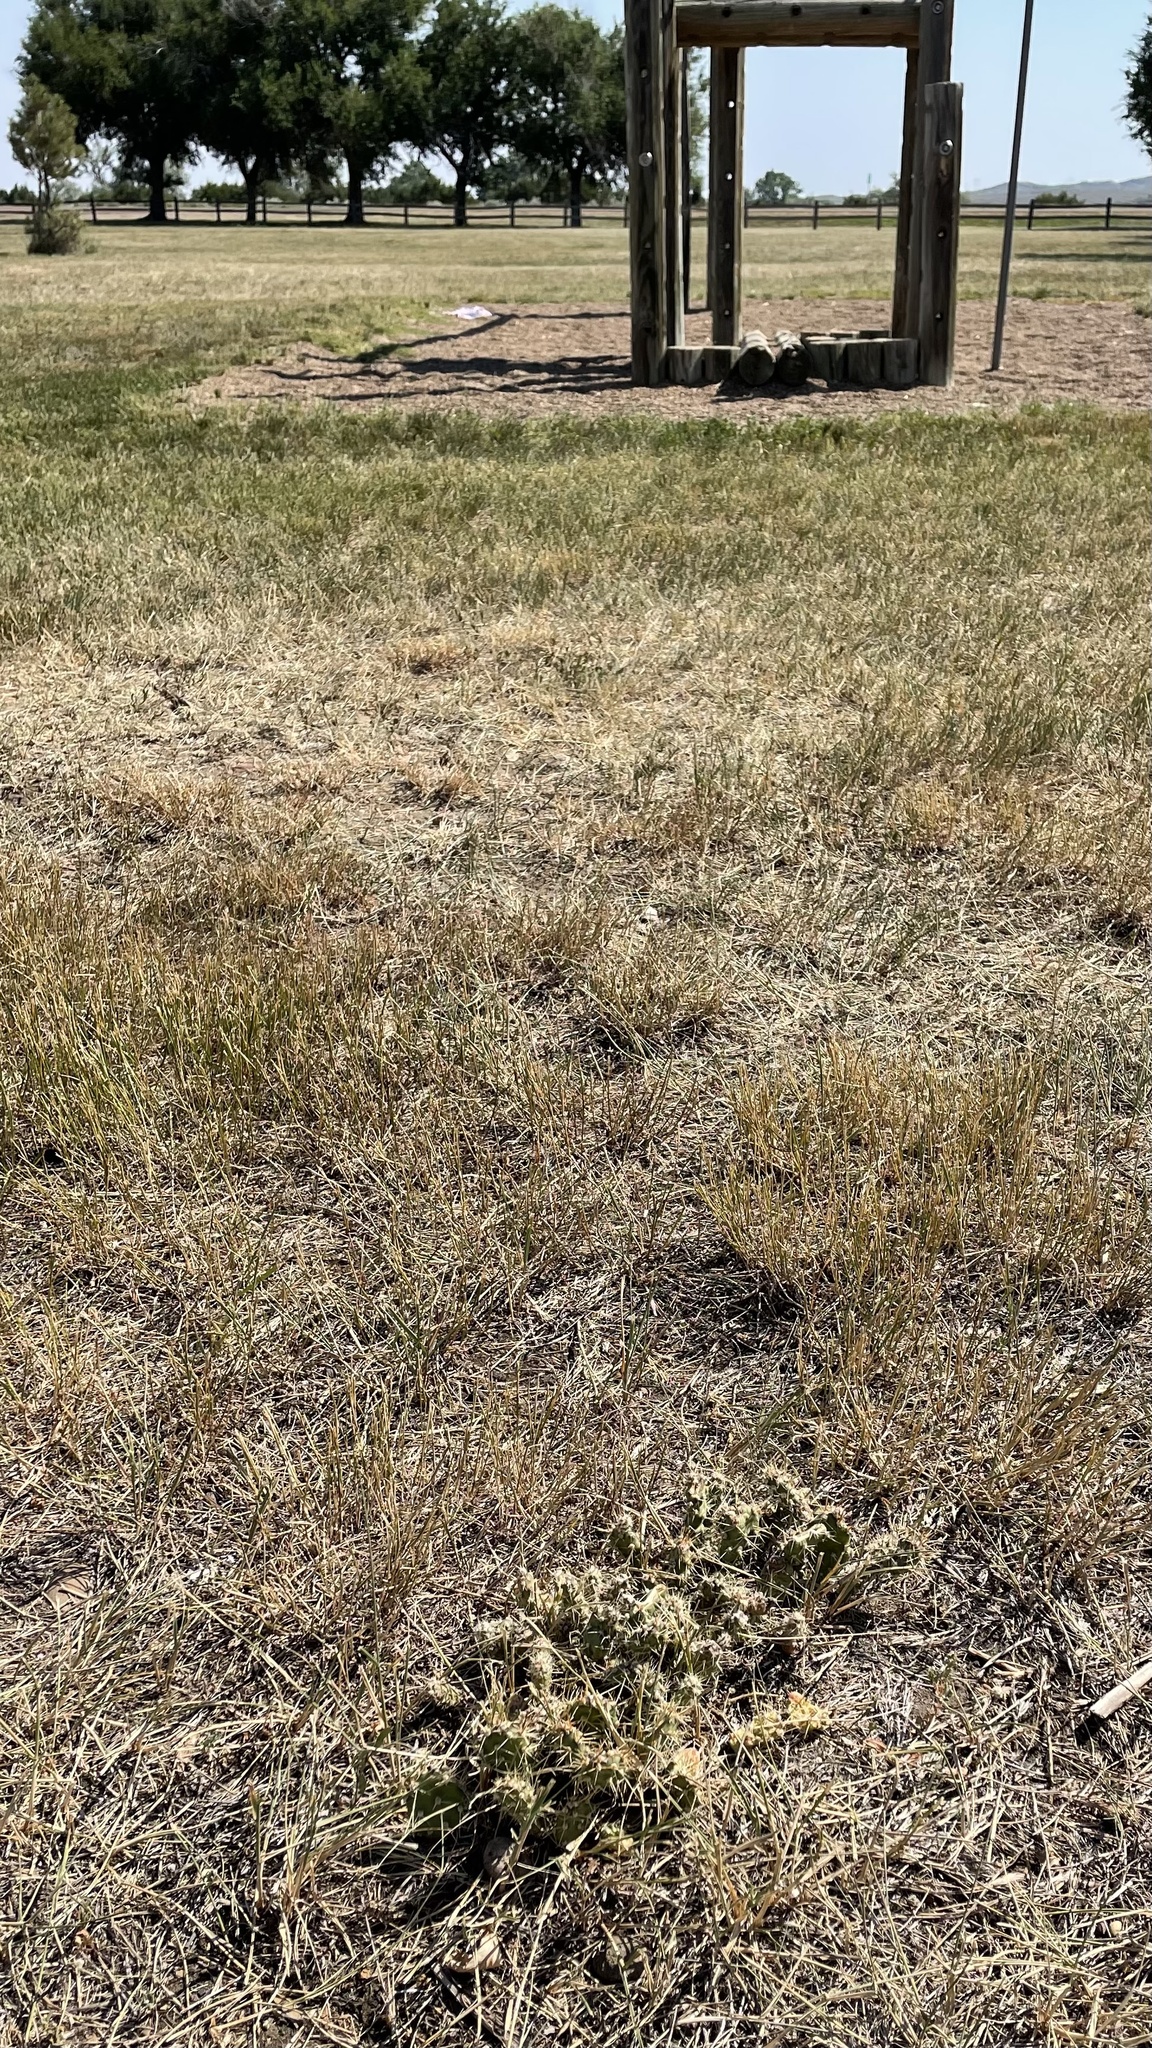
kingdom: Plantae
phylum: Tracheophyta
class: Magnoliopsida
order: Caryophyllales
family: Cactaceae
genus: Opuntia
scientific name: Opuntia fragilis
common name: Brittle cactus
